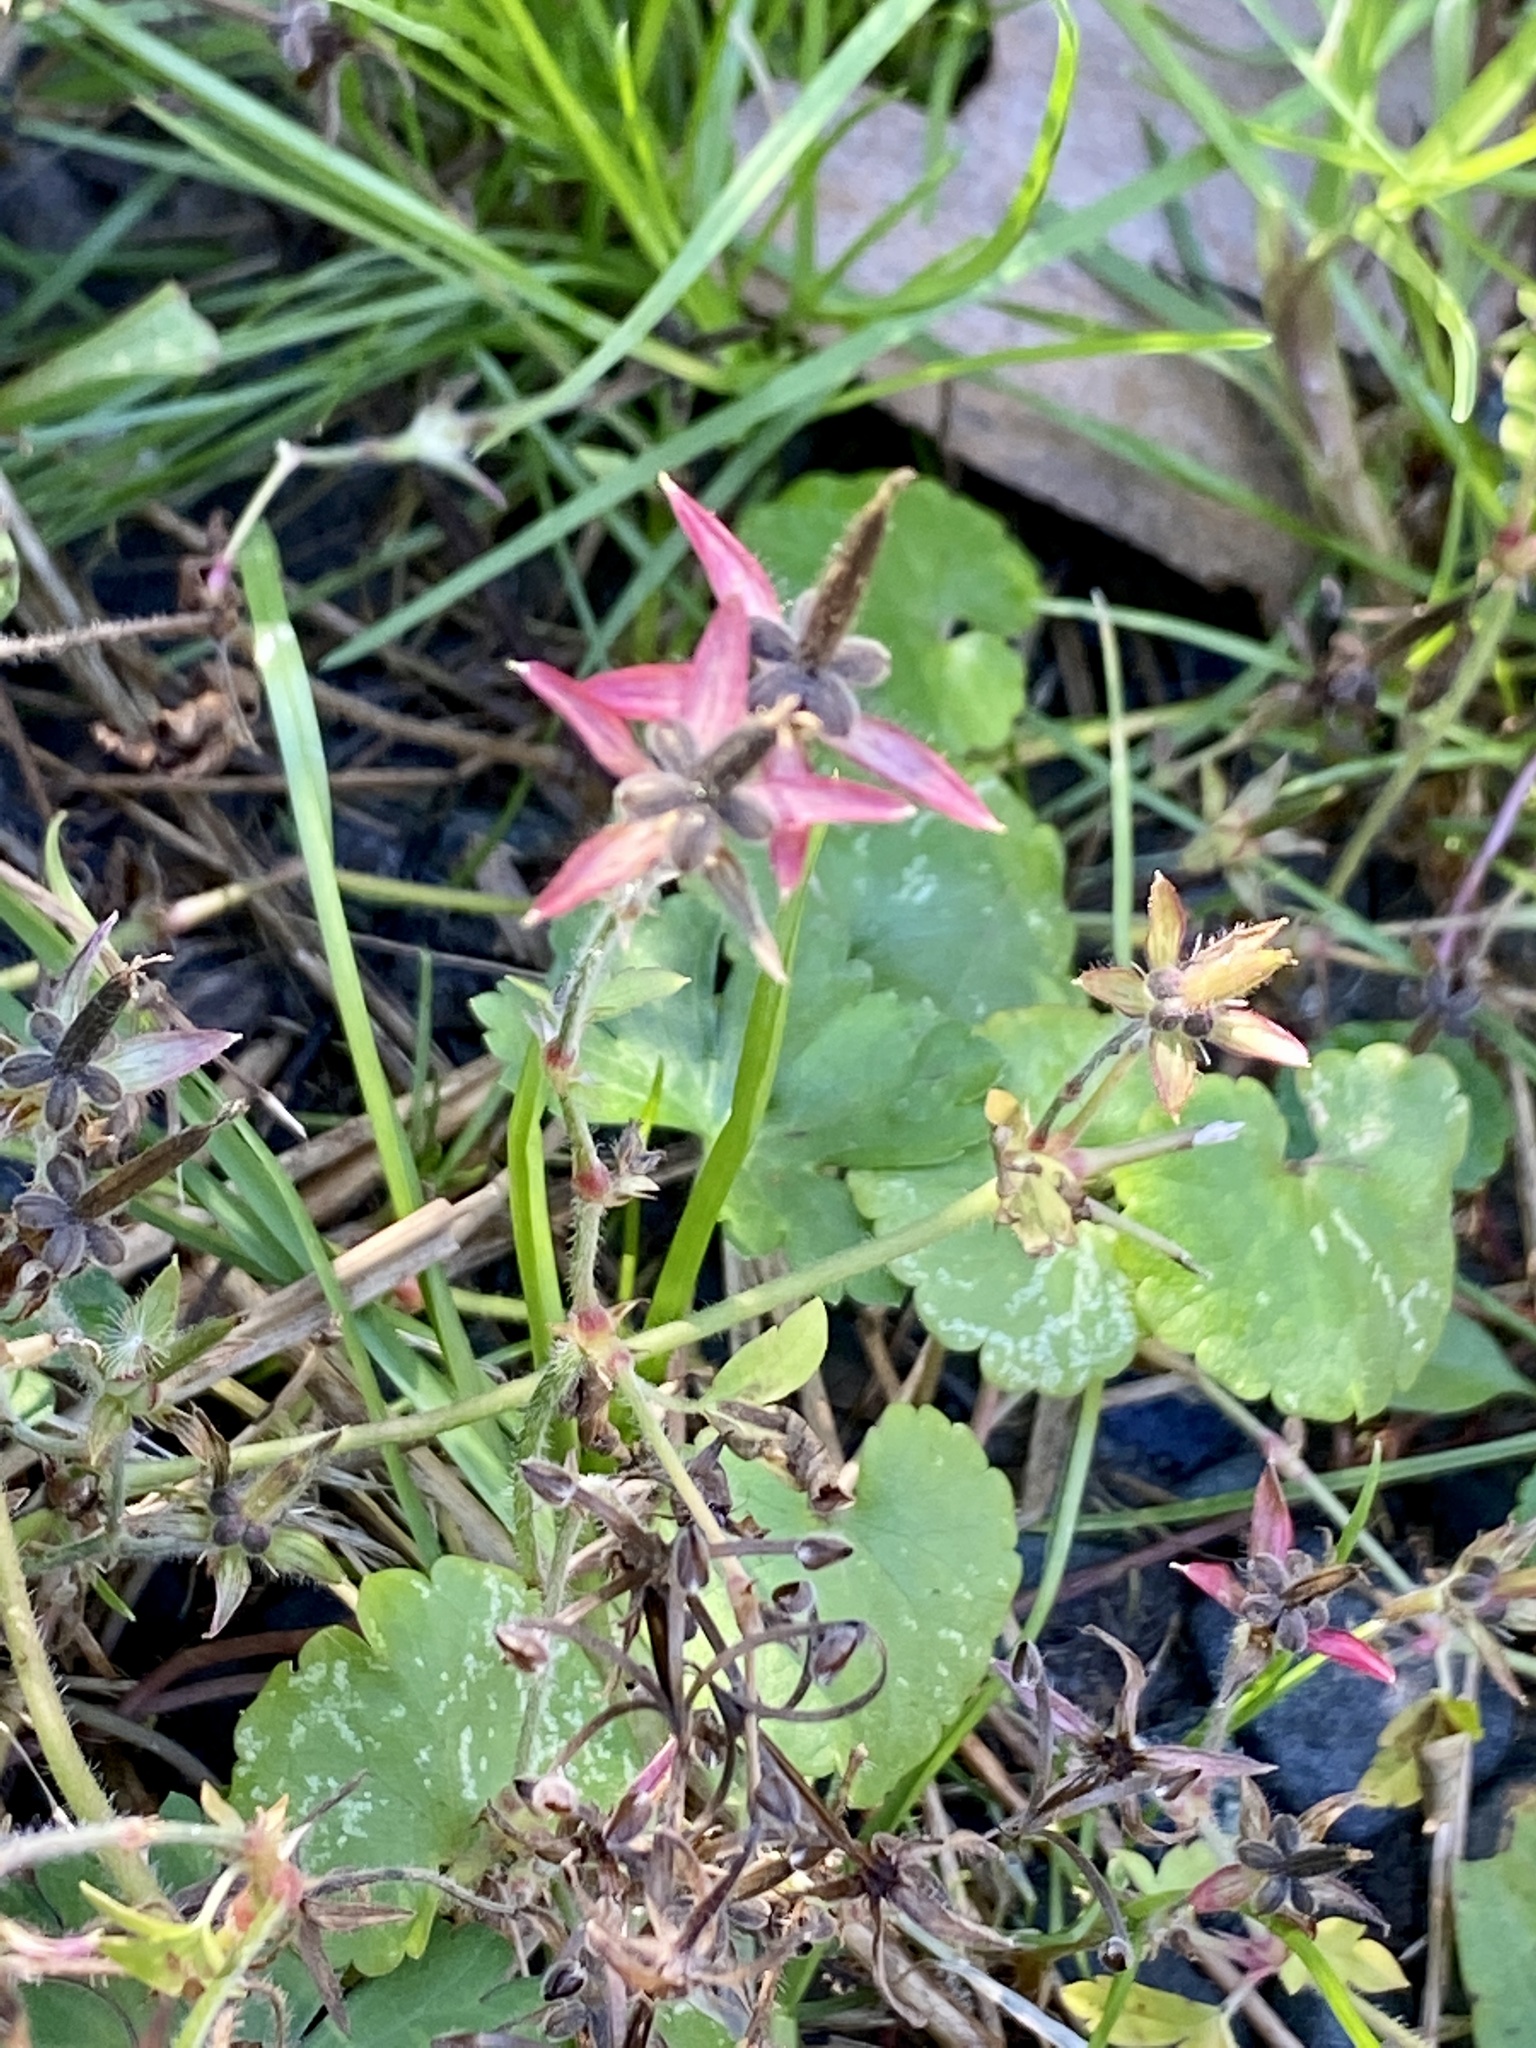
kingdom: Plantae
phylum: Tracheophyta
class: Magnoliopsida
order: Geraniales
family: Geraniaceae
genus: Geranium
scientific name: Geranium thunbergii
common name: Dewdrop crane's-bill
